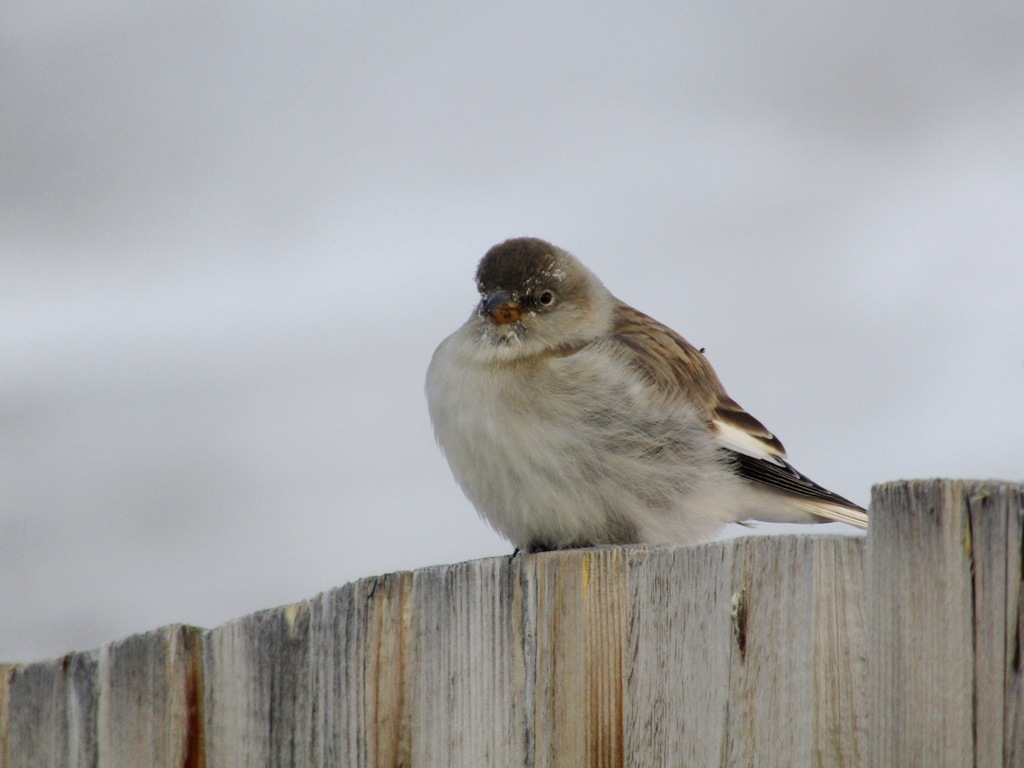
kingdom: Animalia
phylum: Chordata
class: Aves
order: Passeriformes
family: Passeridae
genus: Montifringilla
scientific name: Montifringilla nivalis
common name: White-winged snowfinch
